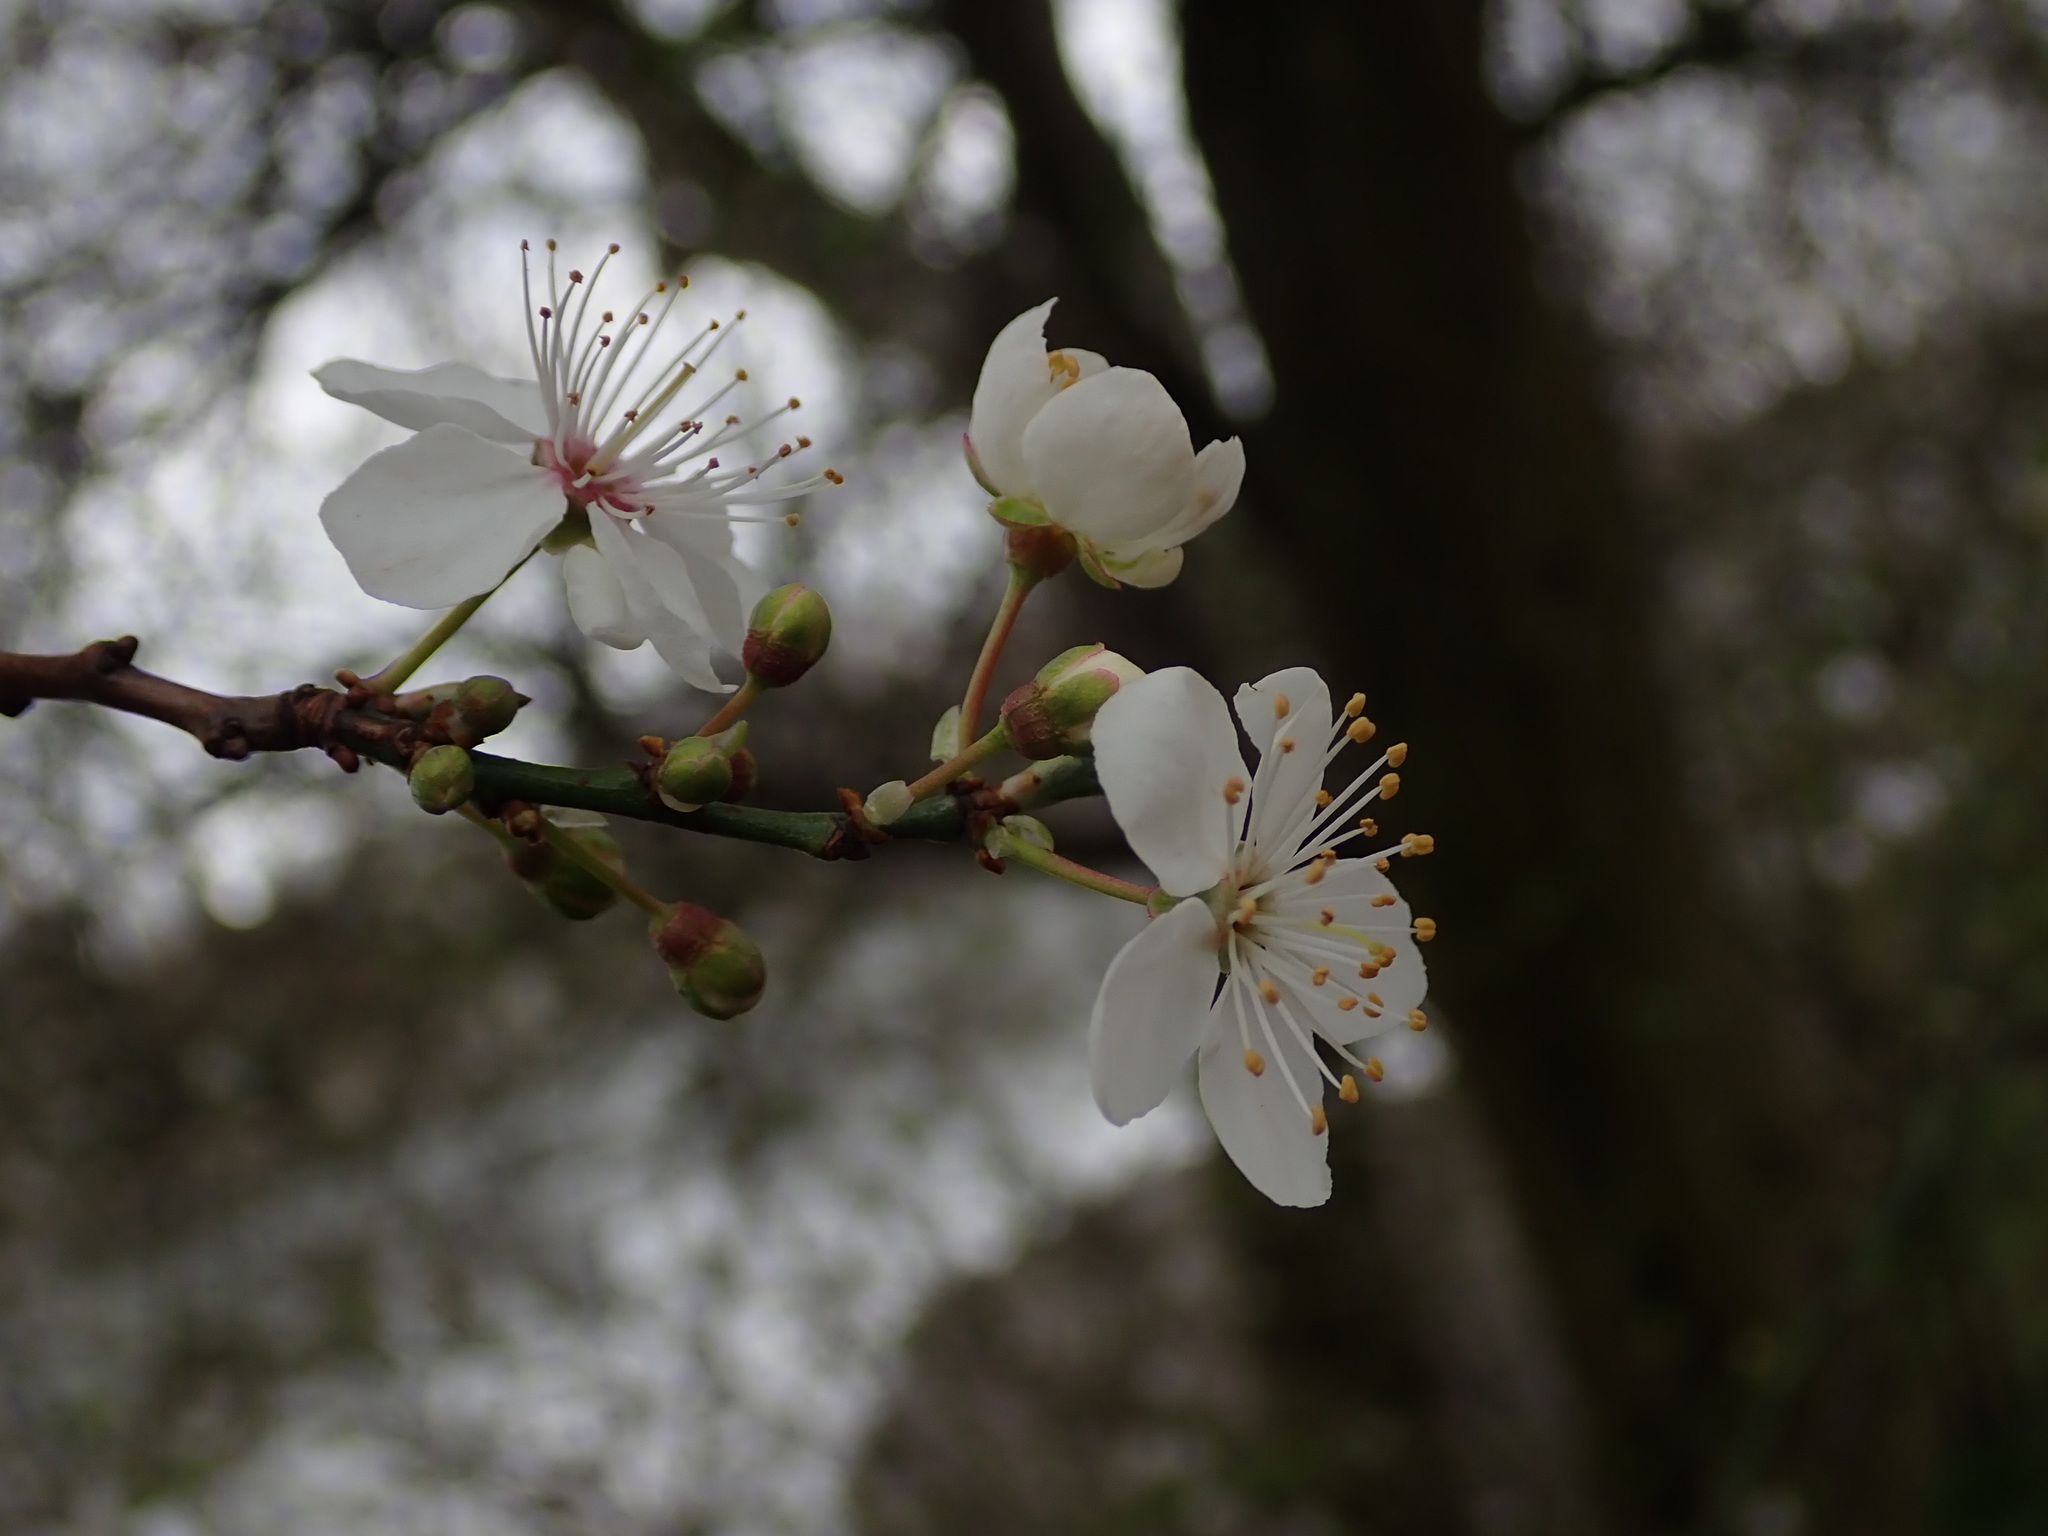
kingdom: Plantae
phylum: Tracheophyta
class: Magnoliopsida
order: Rosales
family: Rosaceae
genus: Prunus
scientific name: Prunus cerasifera
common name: Cherry plum
